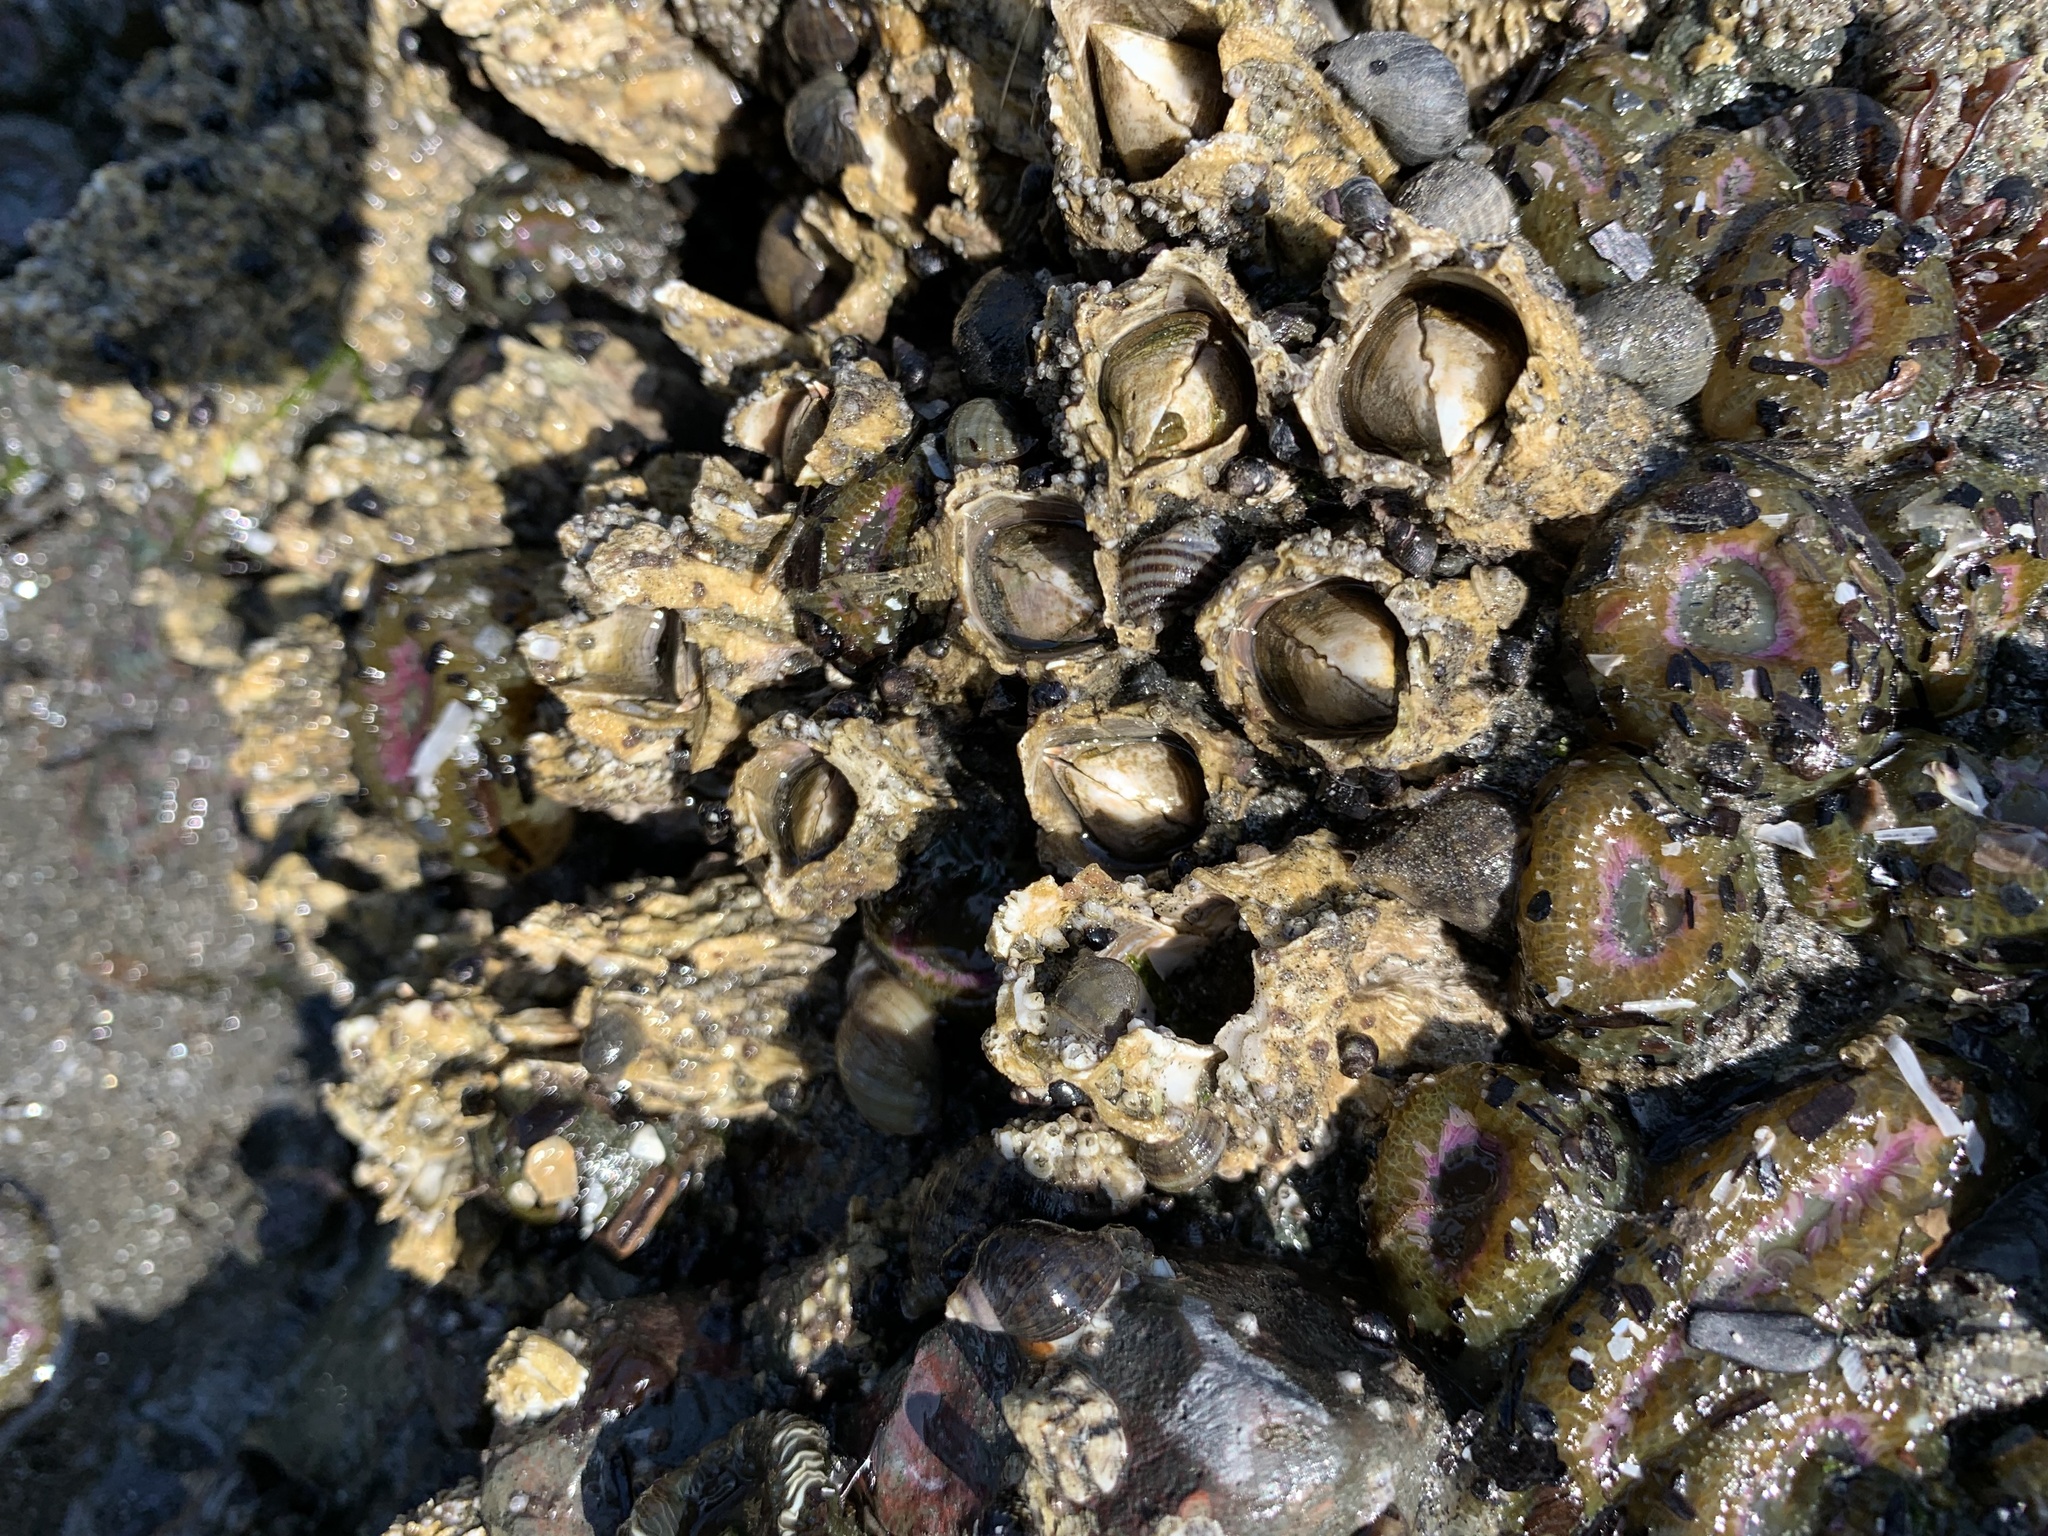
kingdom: Animalia
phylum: Arthropoda
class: Maxillopoda
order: Sessilia
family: Archaeobalanidae
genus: Semibalanus
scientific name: Semibalanus cariosus
